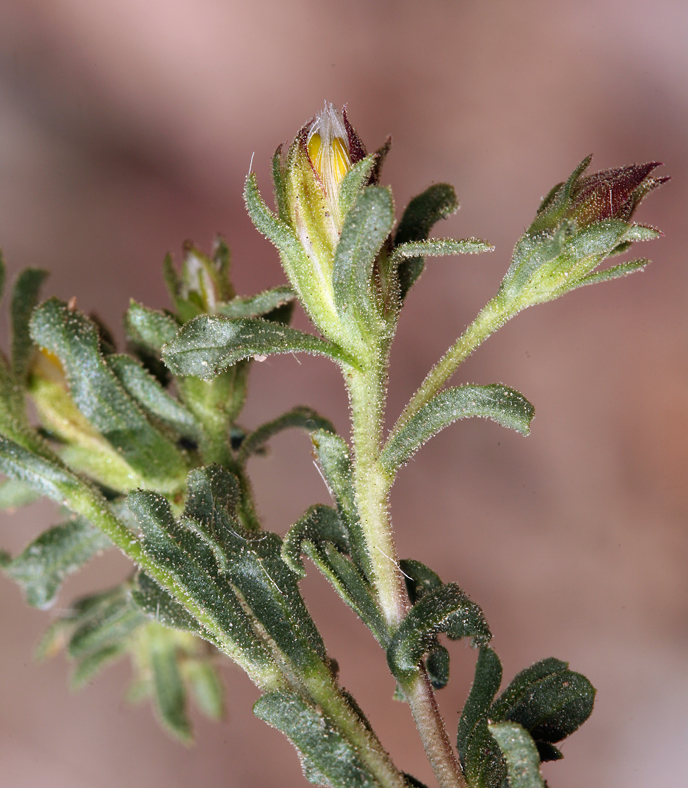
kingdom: Plantae
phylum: Tracheophyta
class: Magnoliopsida
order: Asterales
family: Asteraceae
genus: Ericameria
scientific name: Ericameria suffruticosa
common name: Goldenweed
